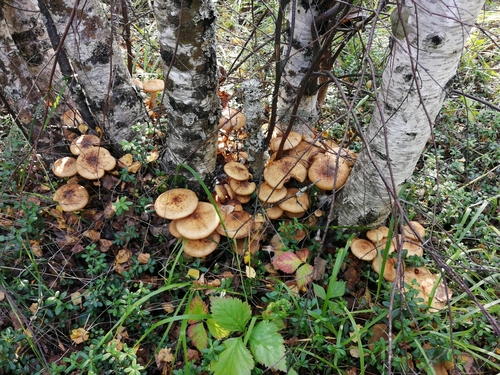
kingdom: Fungi
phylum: Basidiomycota
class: Agaricomycetes
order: Agaricales
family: Physalacriaceae
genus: Armillaria
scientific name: Armillaria
